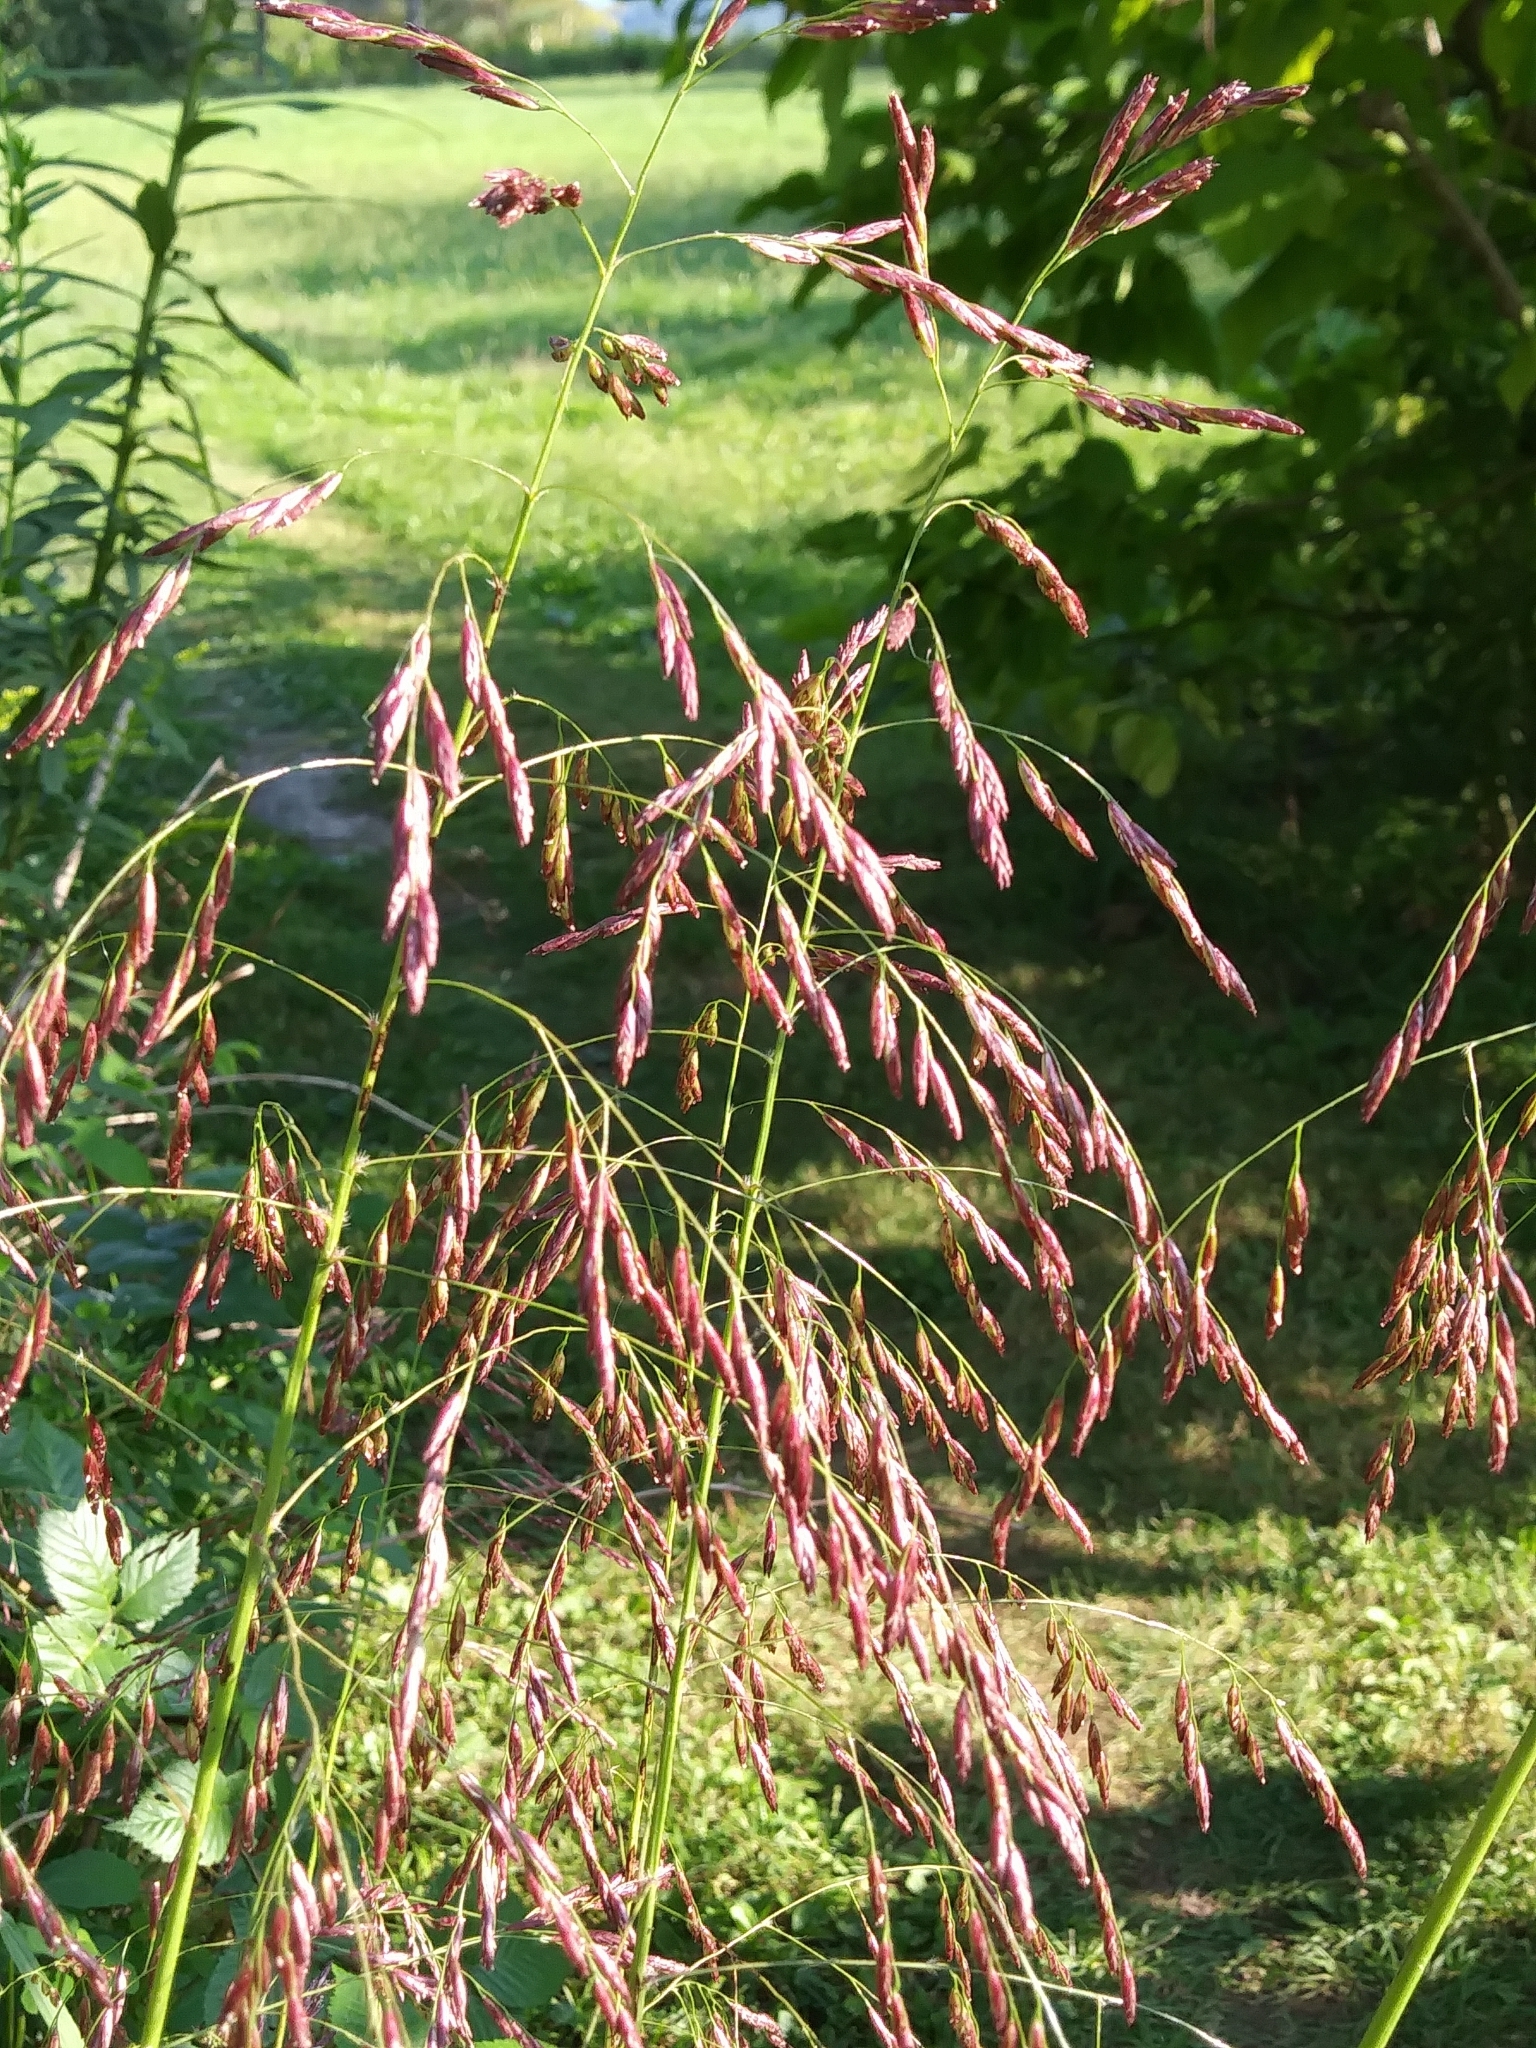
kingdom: Plantae
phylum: Tracheophyta
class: Liliopsida
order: Poales
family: Poaceae
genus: Tridens
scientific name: Tridens flavus
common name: Purpletop
